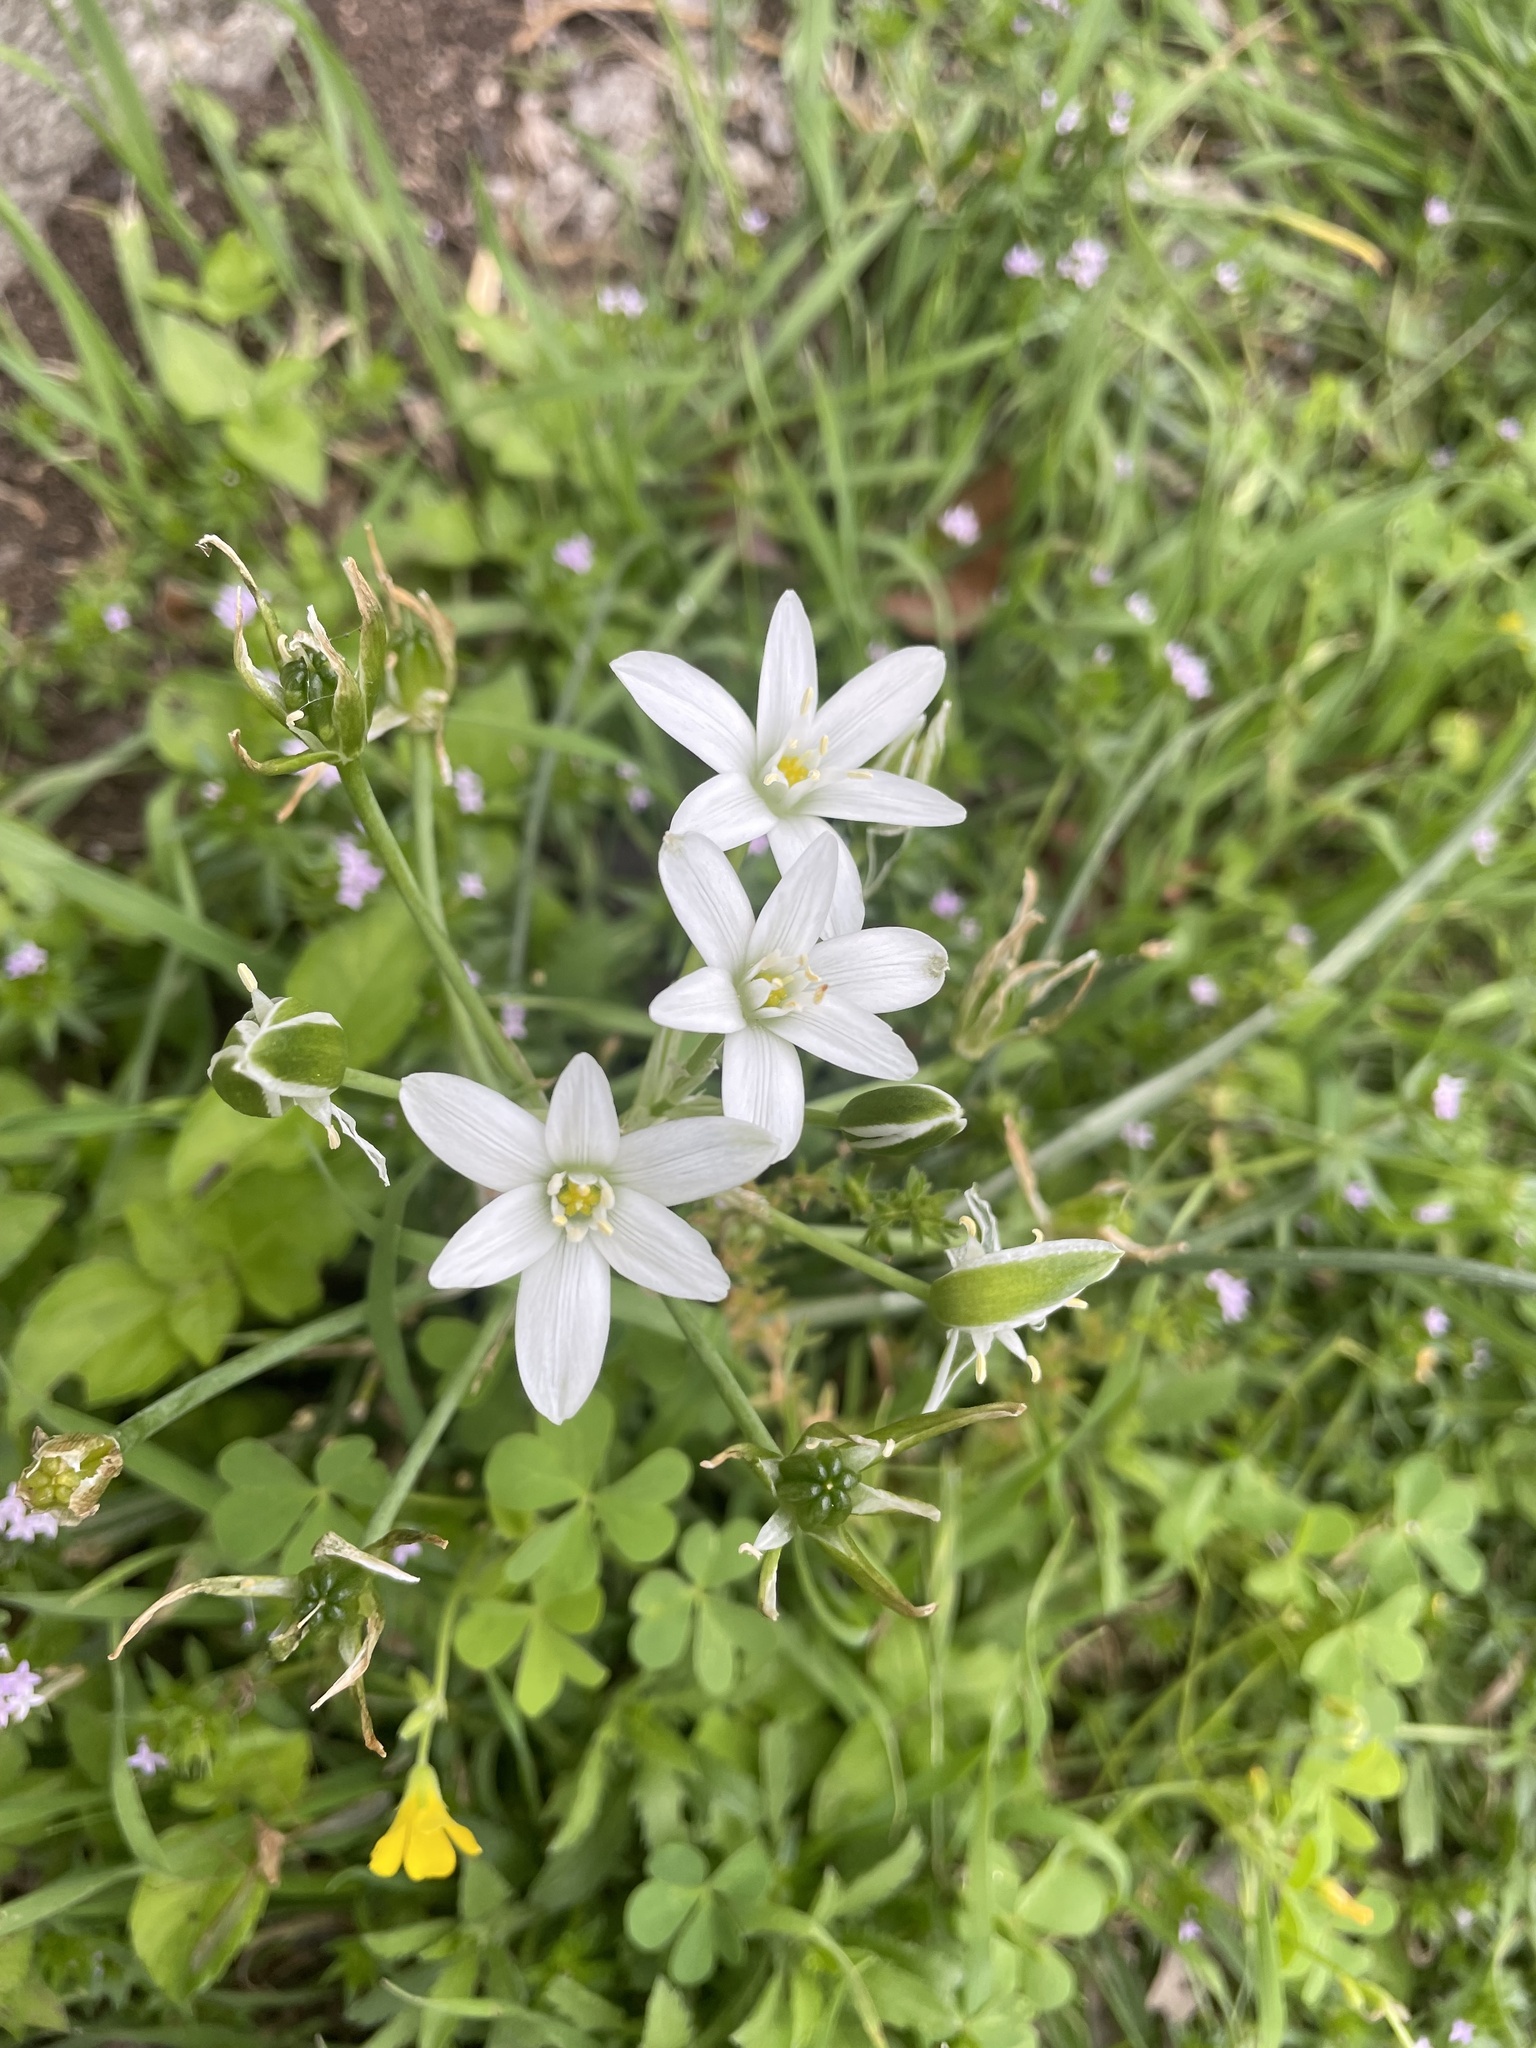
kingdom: Plantae
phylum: Tracheophyta
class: Liliopsida
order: Asparagales
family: Asparagaceae
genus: Ornithogalum
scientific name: Ornithogalum umbellatum
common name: Garden star-of-bethlehem
